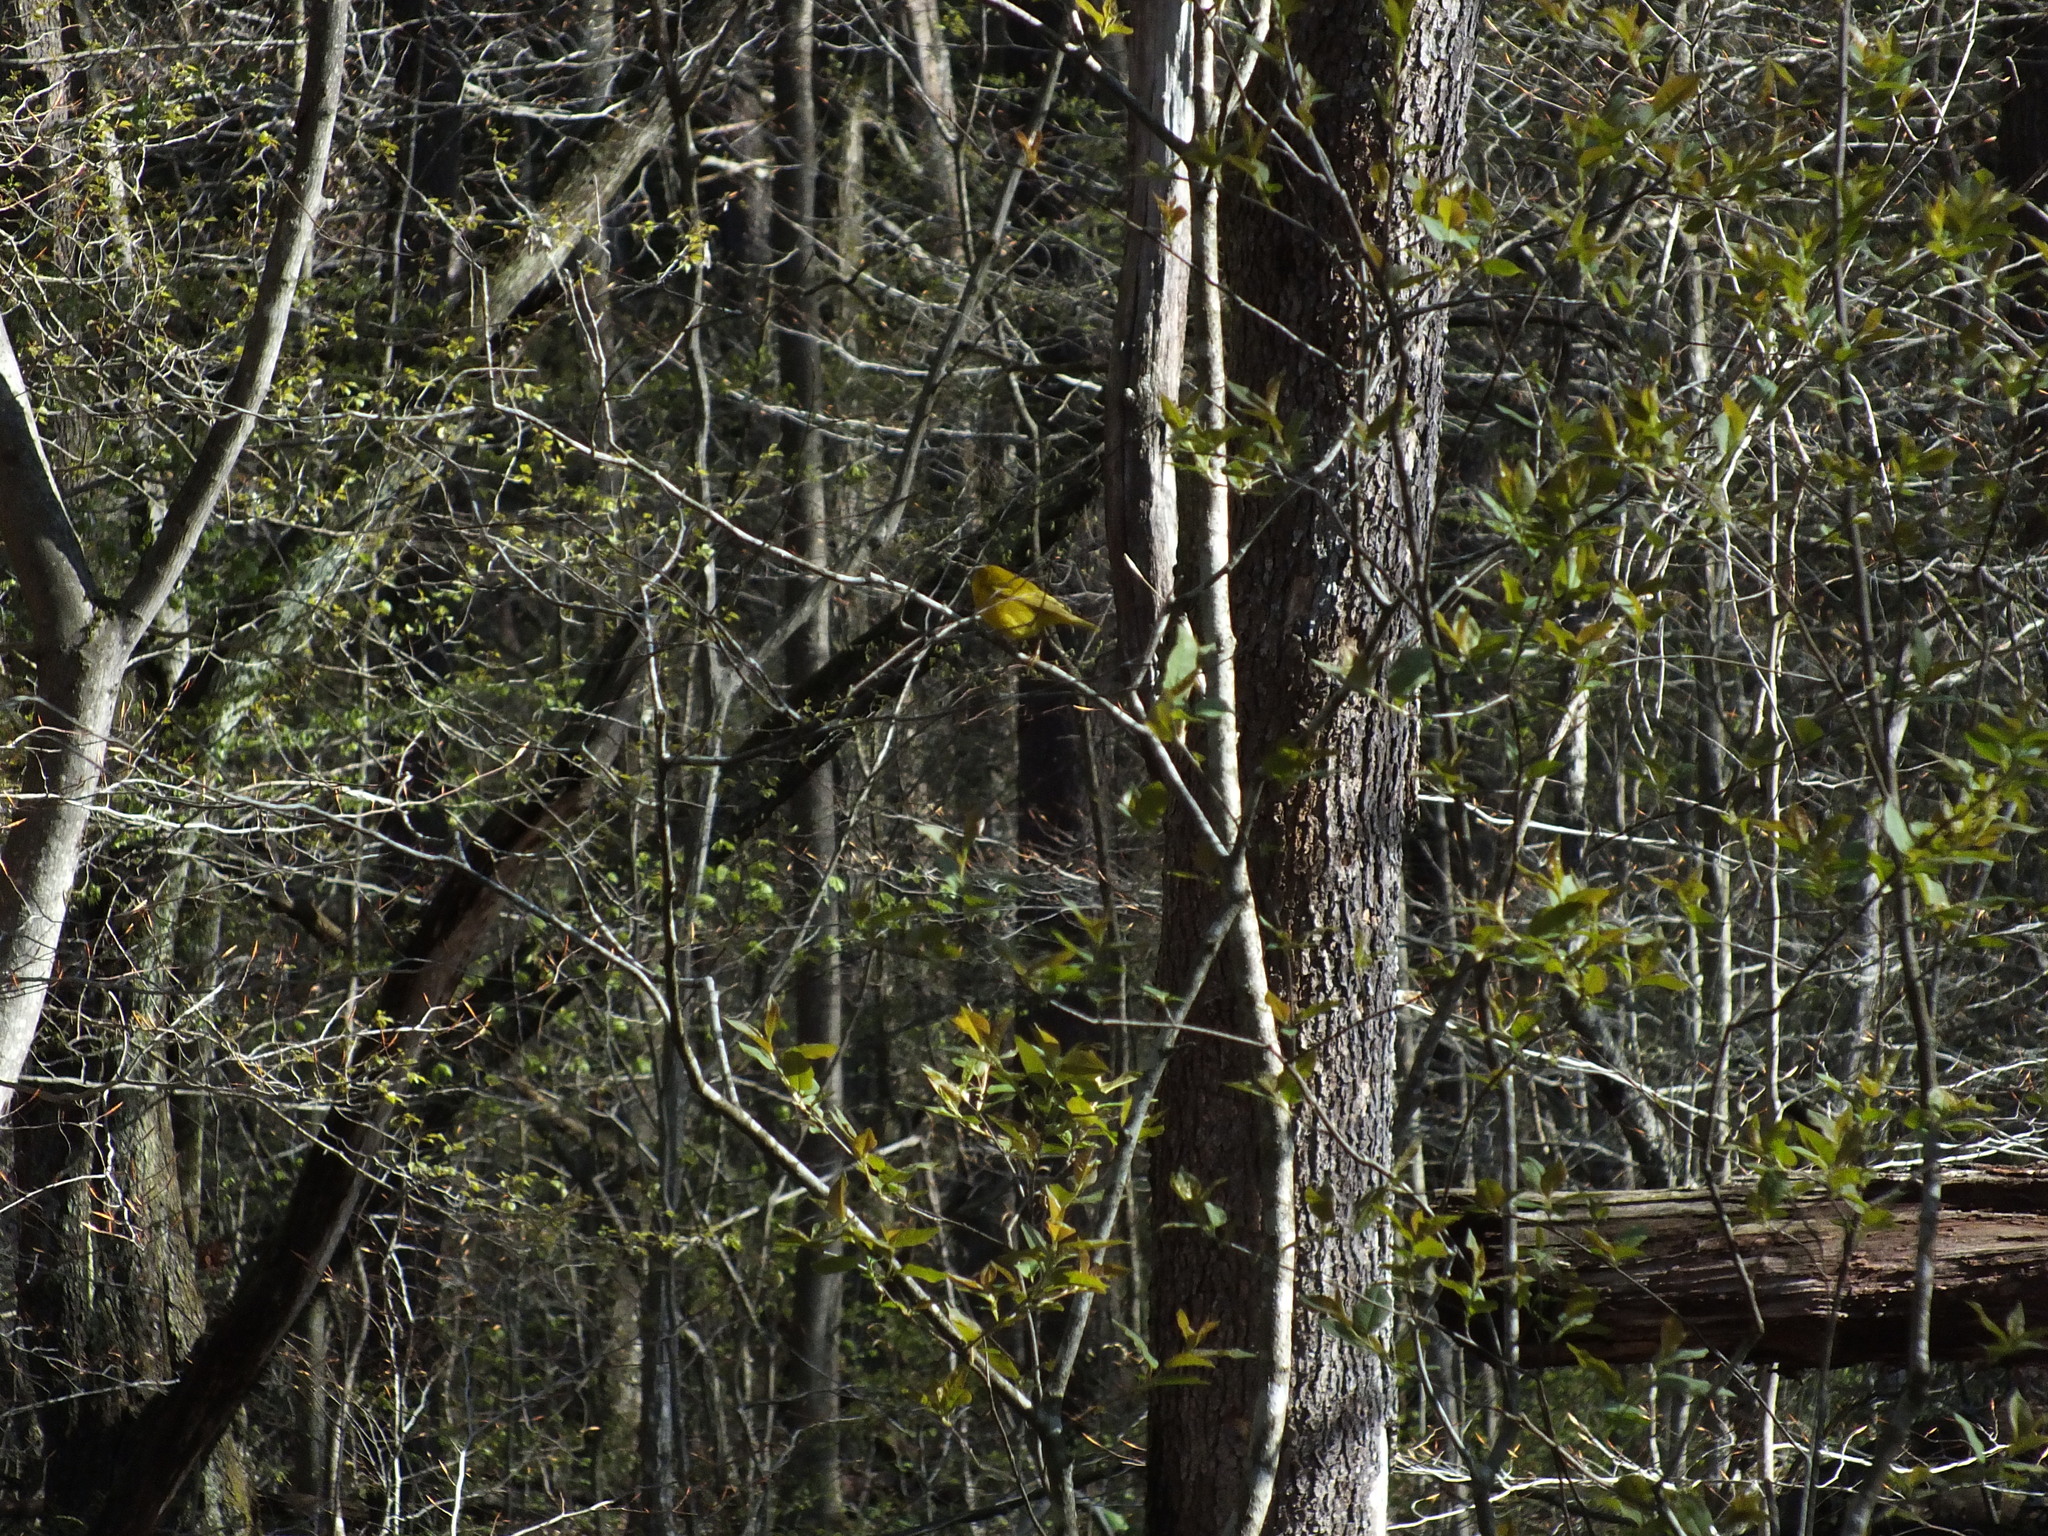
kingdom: Animalia
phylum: Chordata
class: Aves
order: Passeriformes
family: Parulidae
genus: Setophaga
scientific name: Setophaga petechia
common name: Yellow warbler
